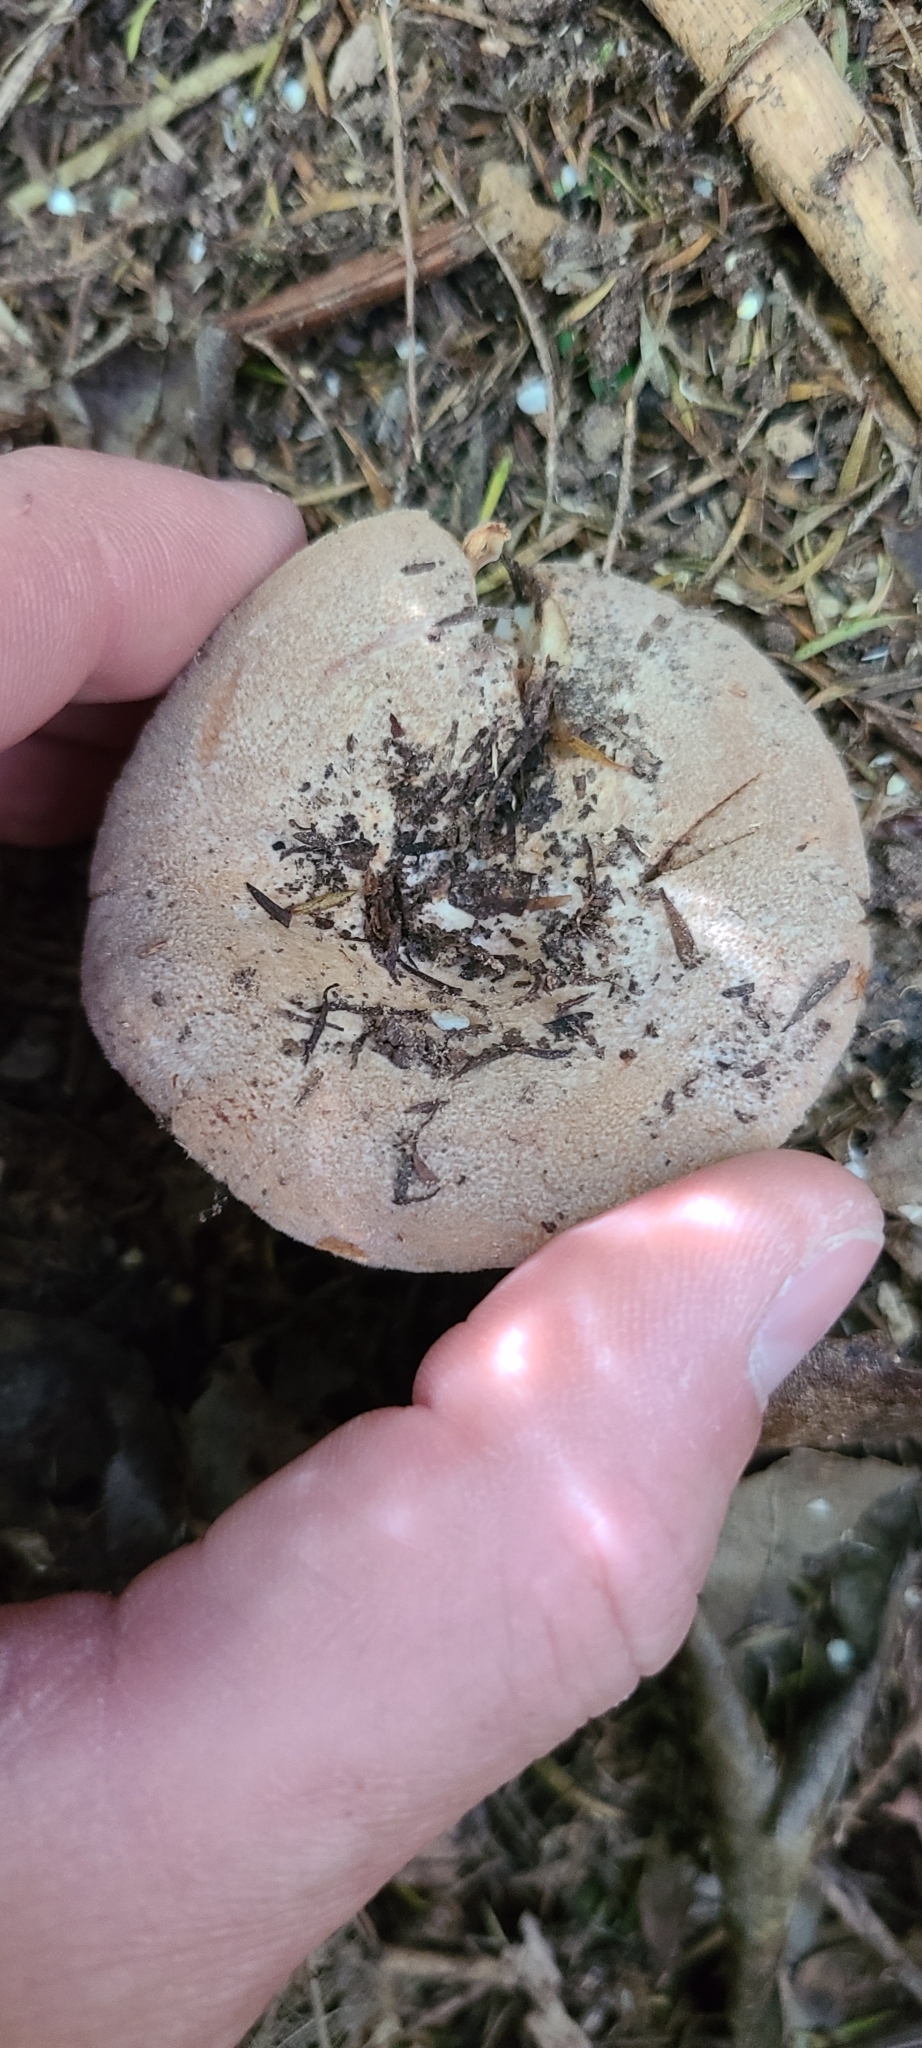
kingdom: Fungi
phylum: Basidiomycota
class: Agaricomycetes
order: Russulales
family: Russulaceae
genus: Lactifluus
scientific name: Lactifluus clarkeae
